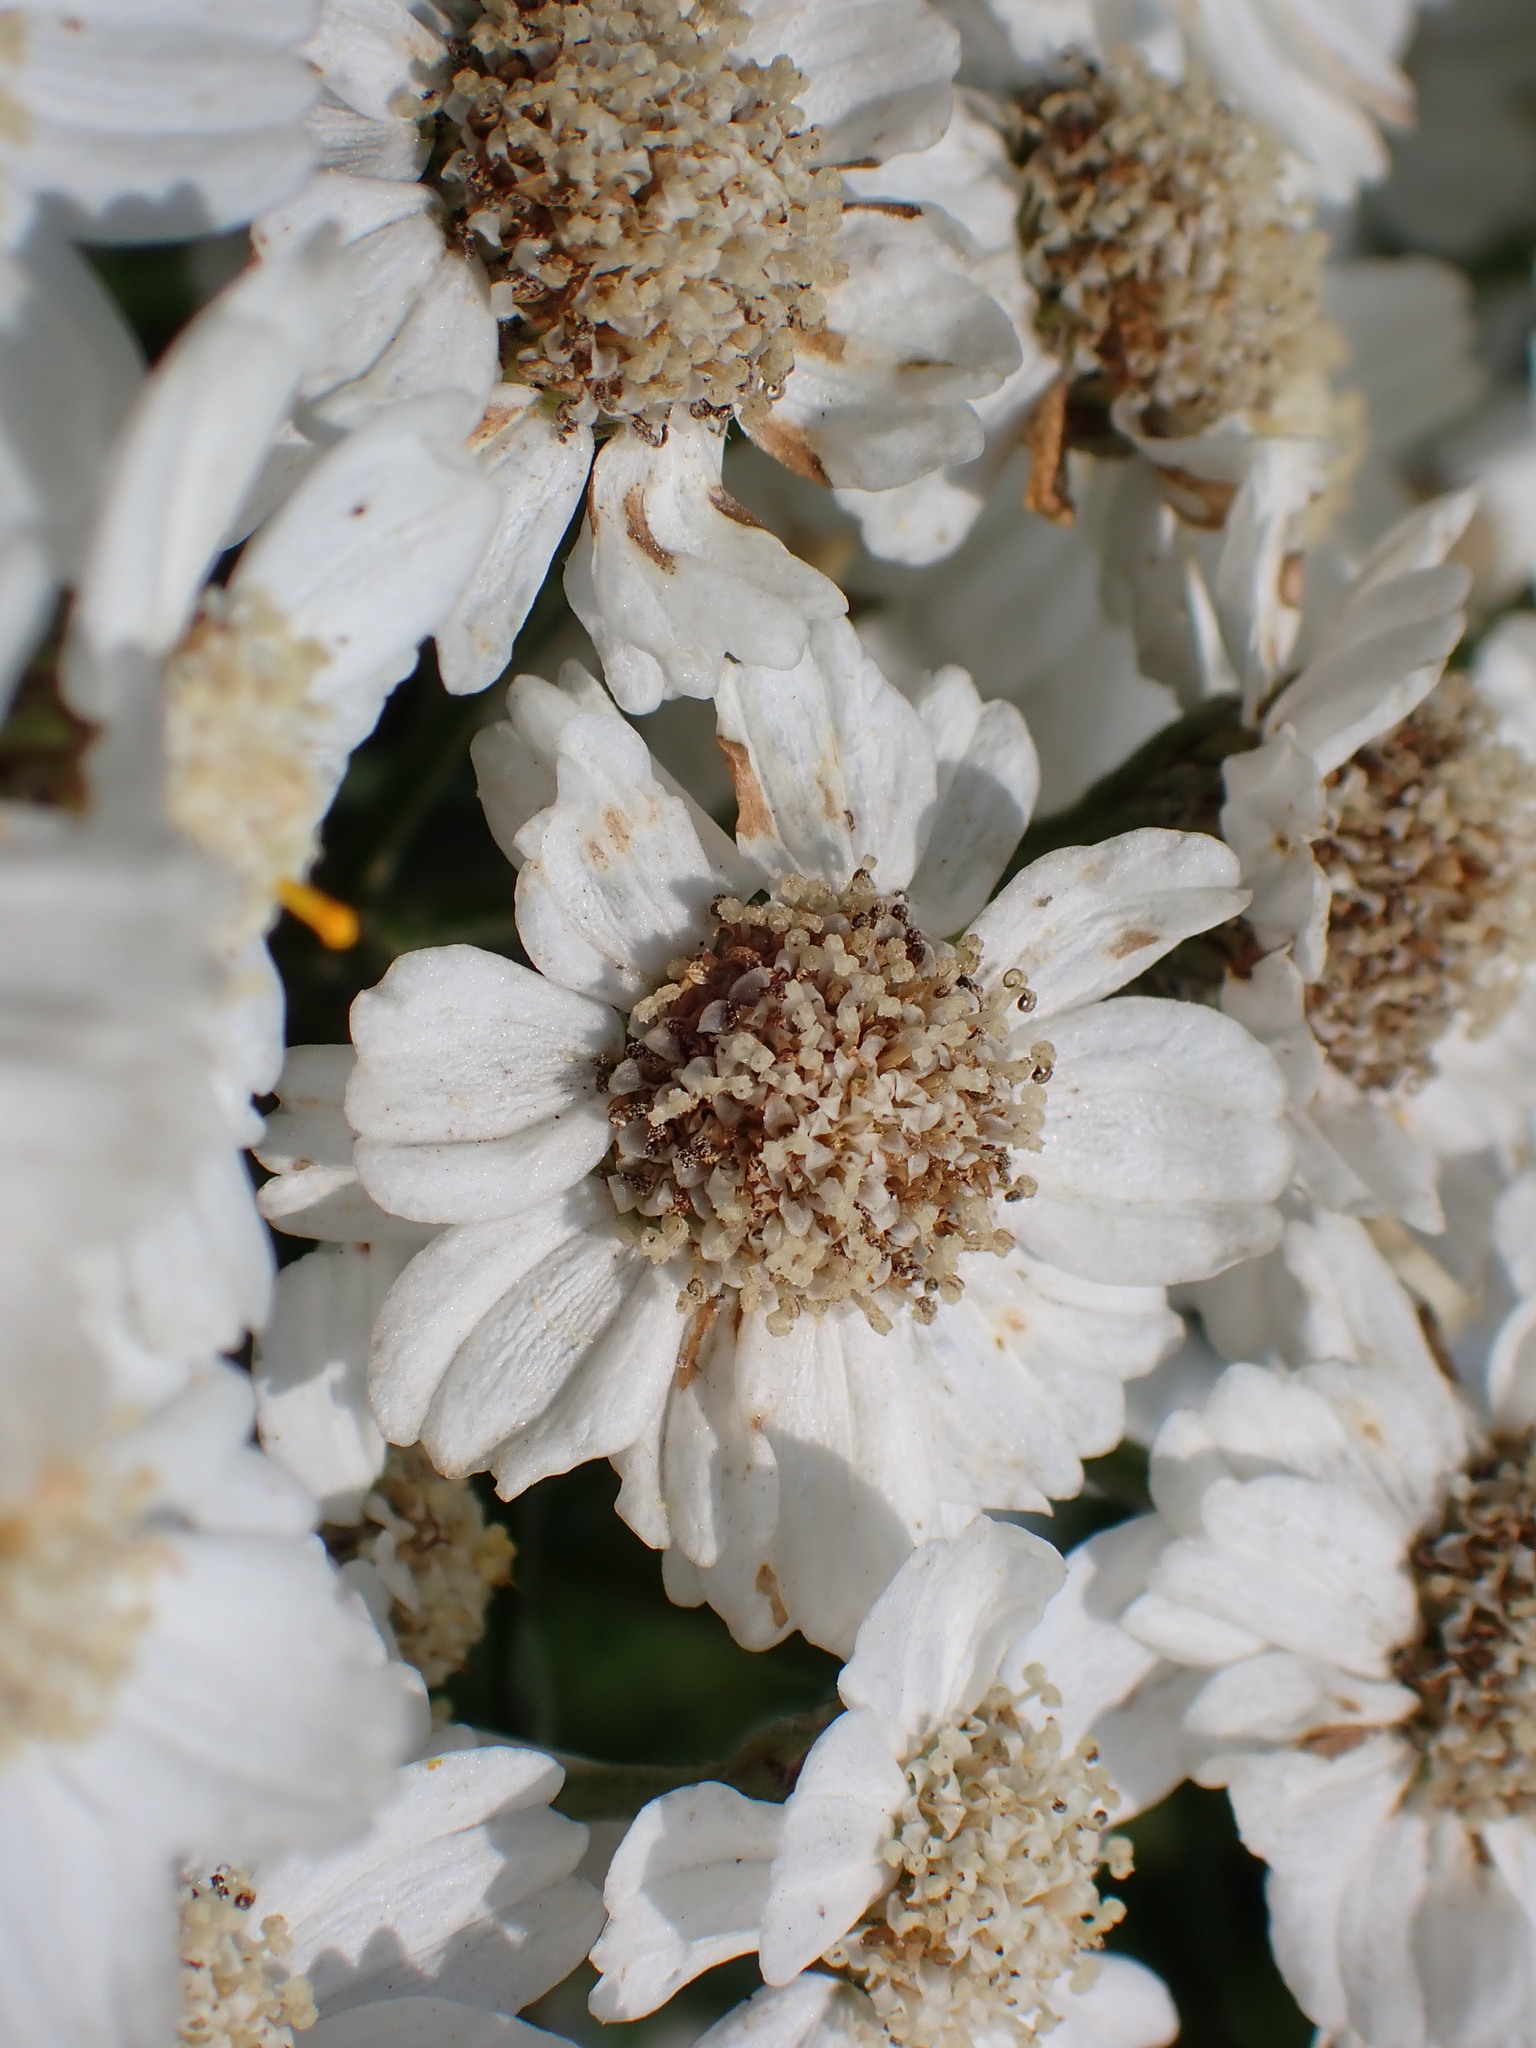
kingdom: Plantae
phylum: Tracheophyta
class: Magnoliopsida
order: Asterales
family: Asteraceae
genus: Achillea
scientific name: Achillea ptarmica
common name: Sneezeweed
